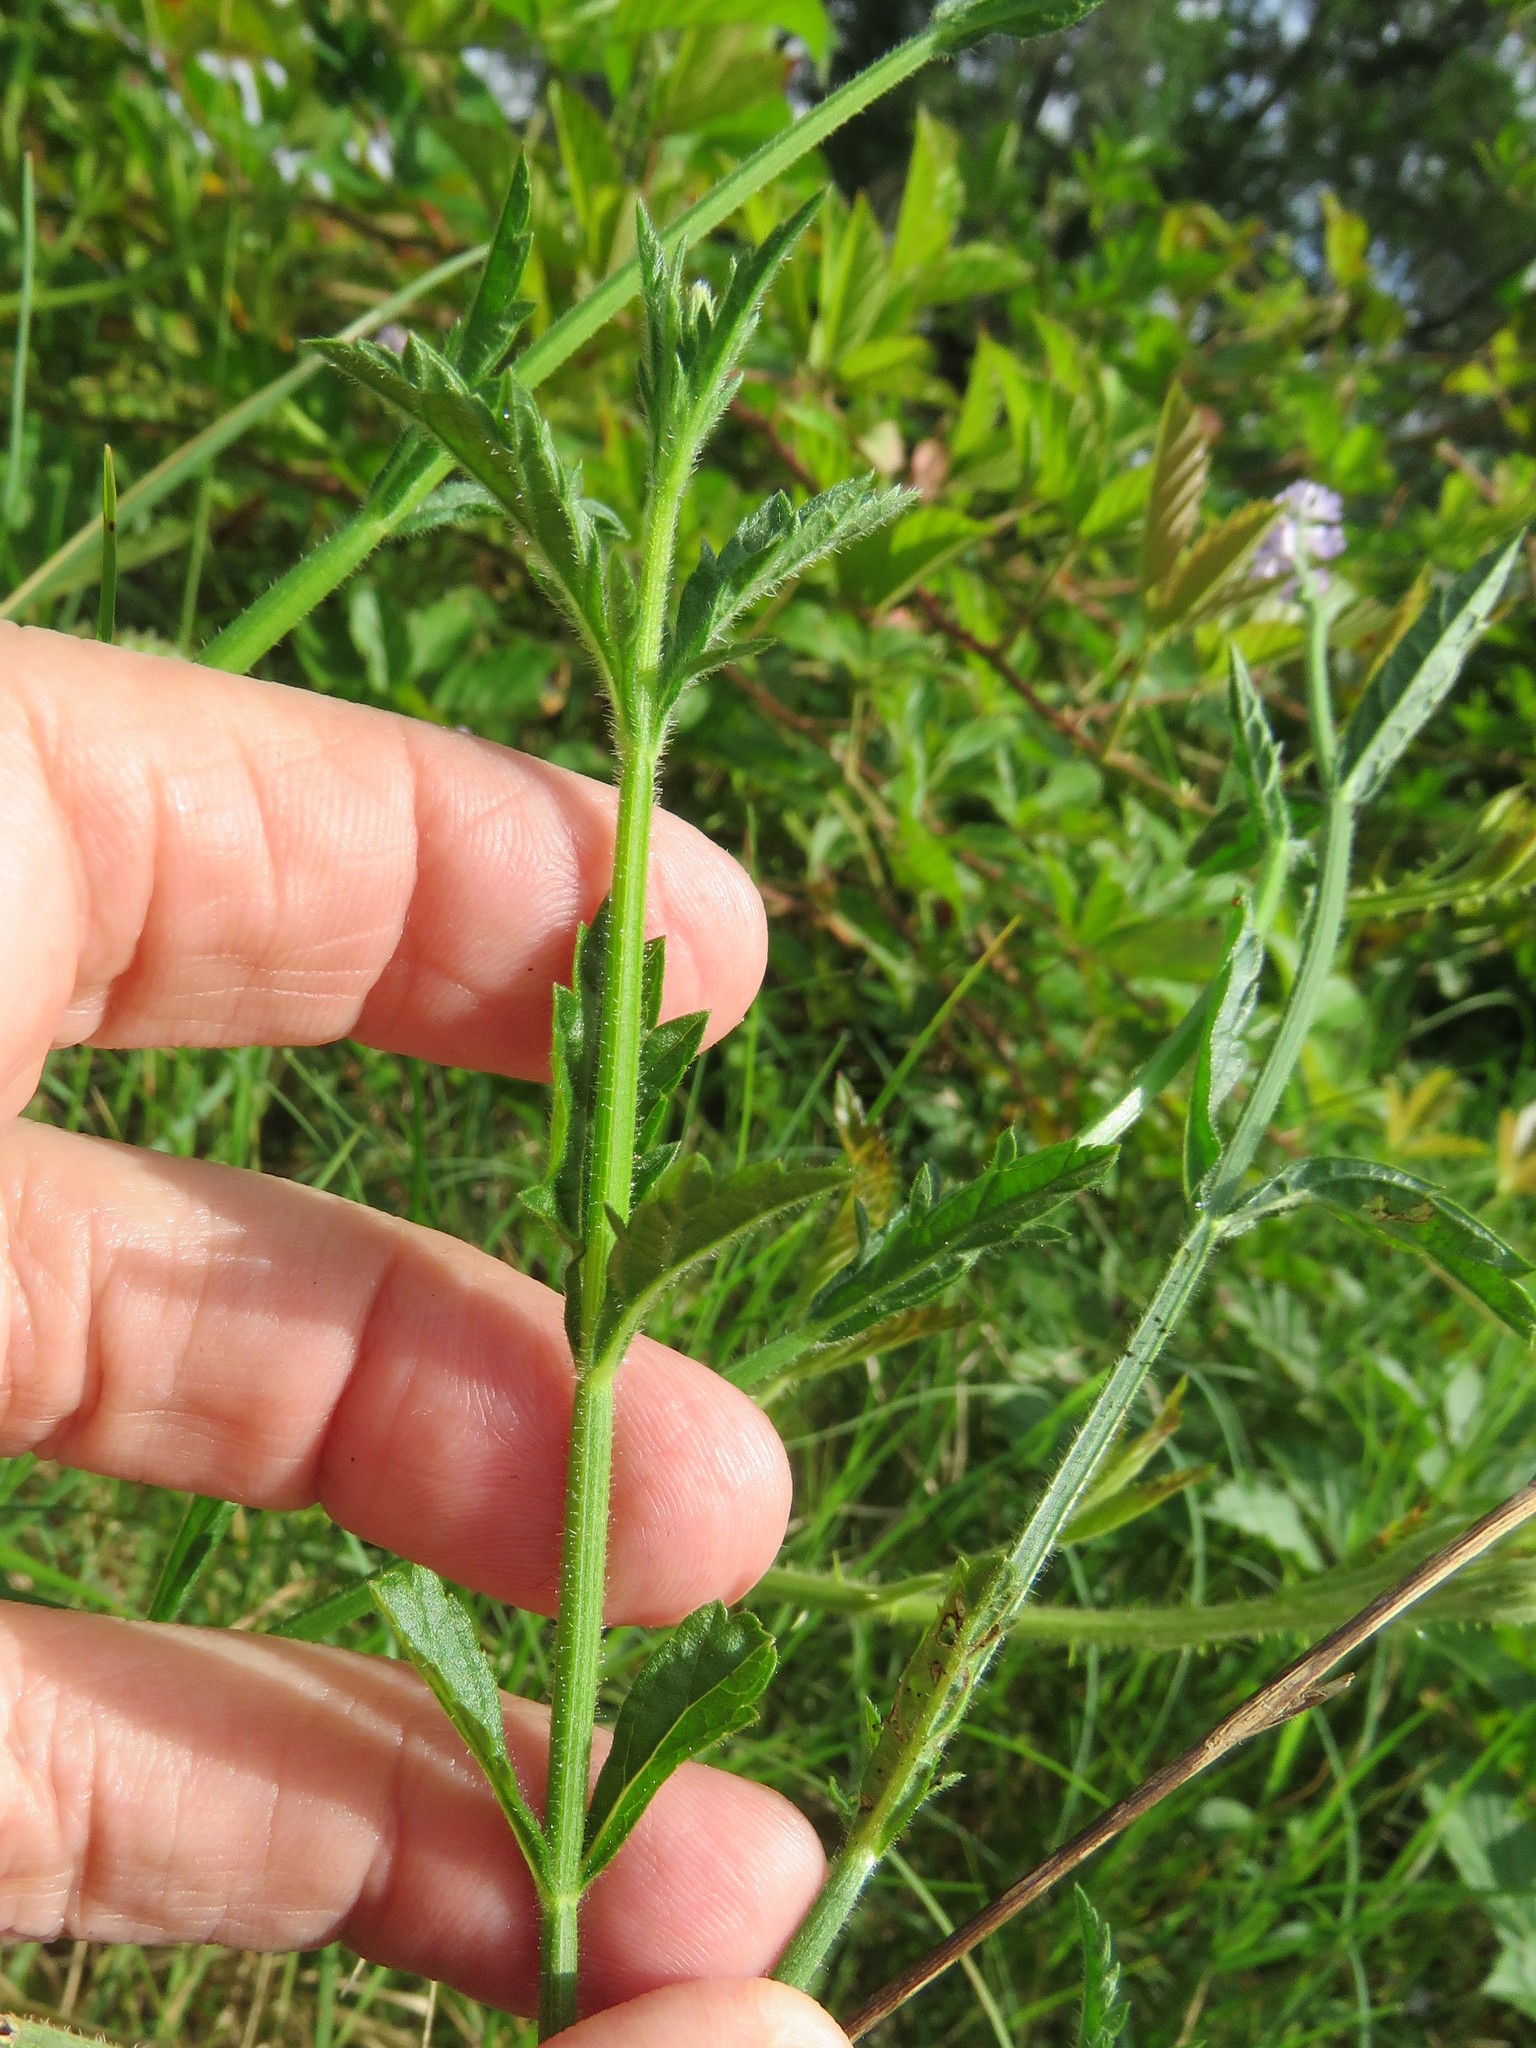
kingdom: Plantae
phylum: Tracheophyta
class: Magnoliopsida
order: Lamiales
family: Verbenaceae
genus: Verbena
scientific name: Verbena xutha
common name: Gulf vervain
